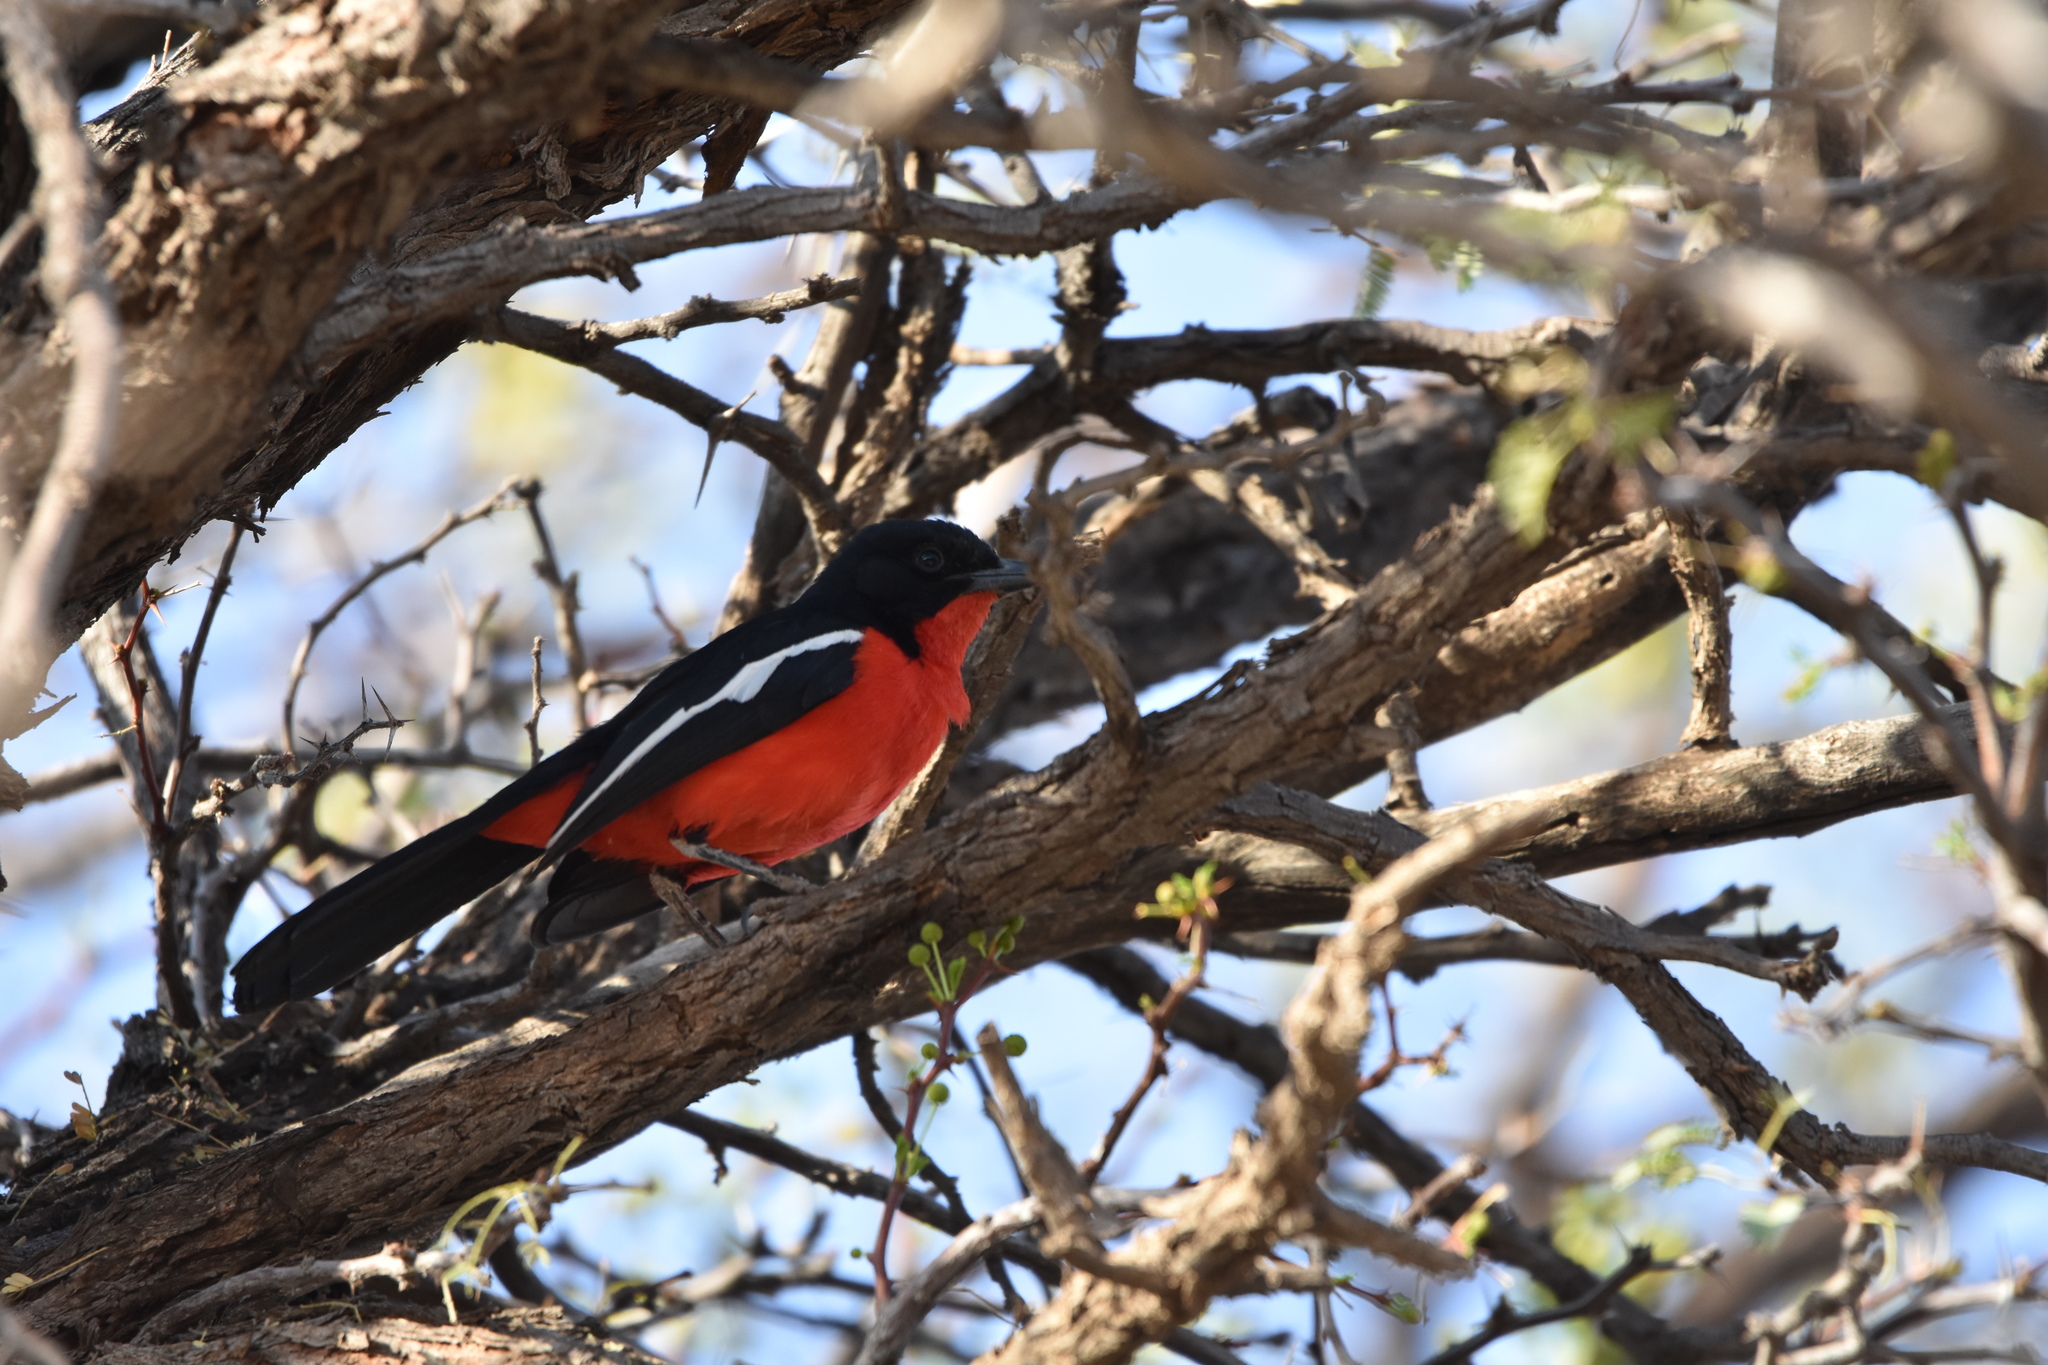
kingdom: Animalia
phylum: Chordata
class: Aves
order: Passeriformes
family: Malaconotidae
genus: Laniarius
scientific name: Laniarius atrococcineus
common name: Crimson-breasted shrike
